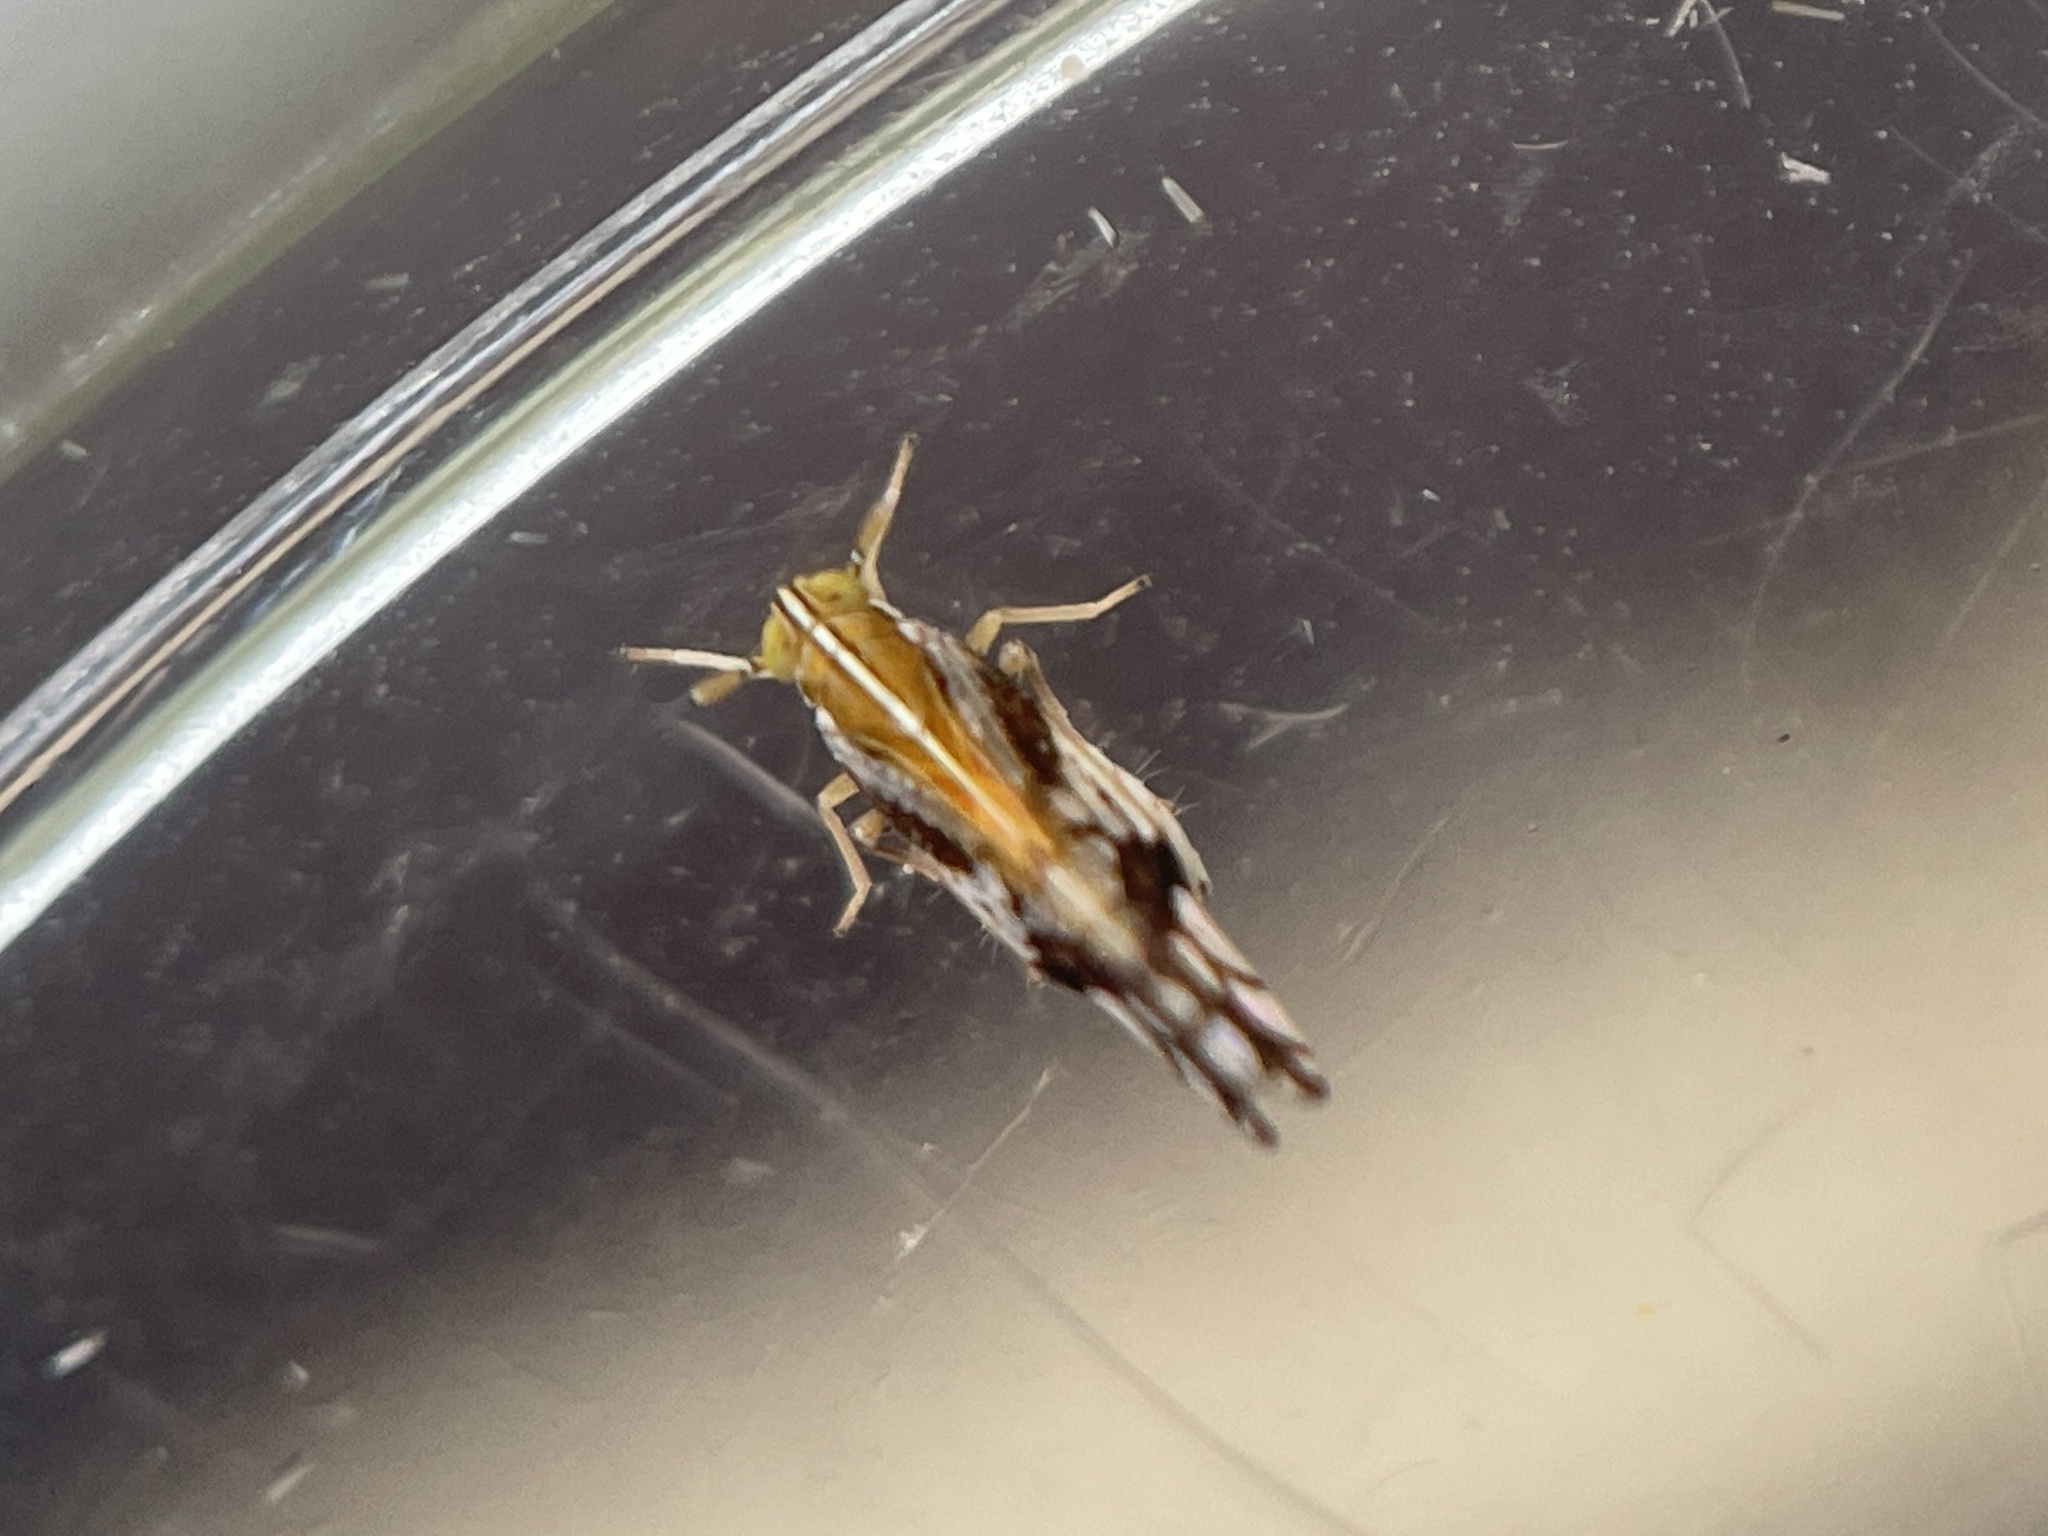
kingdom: Animalia
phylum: Arthropoda
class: Insecta
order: Hemiptera
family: Delphacidae
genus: Liburniella
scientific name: Liburniella ornata
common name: Ornate planthopper
